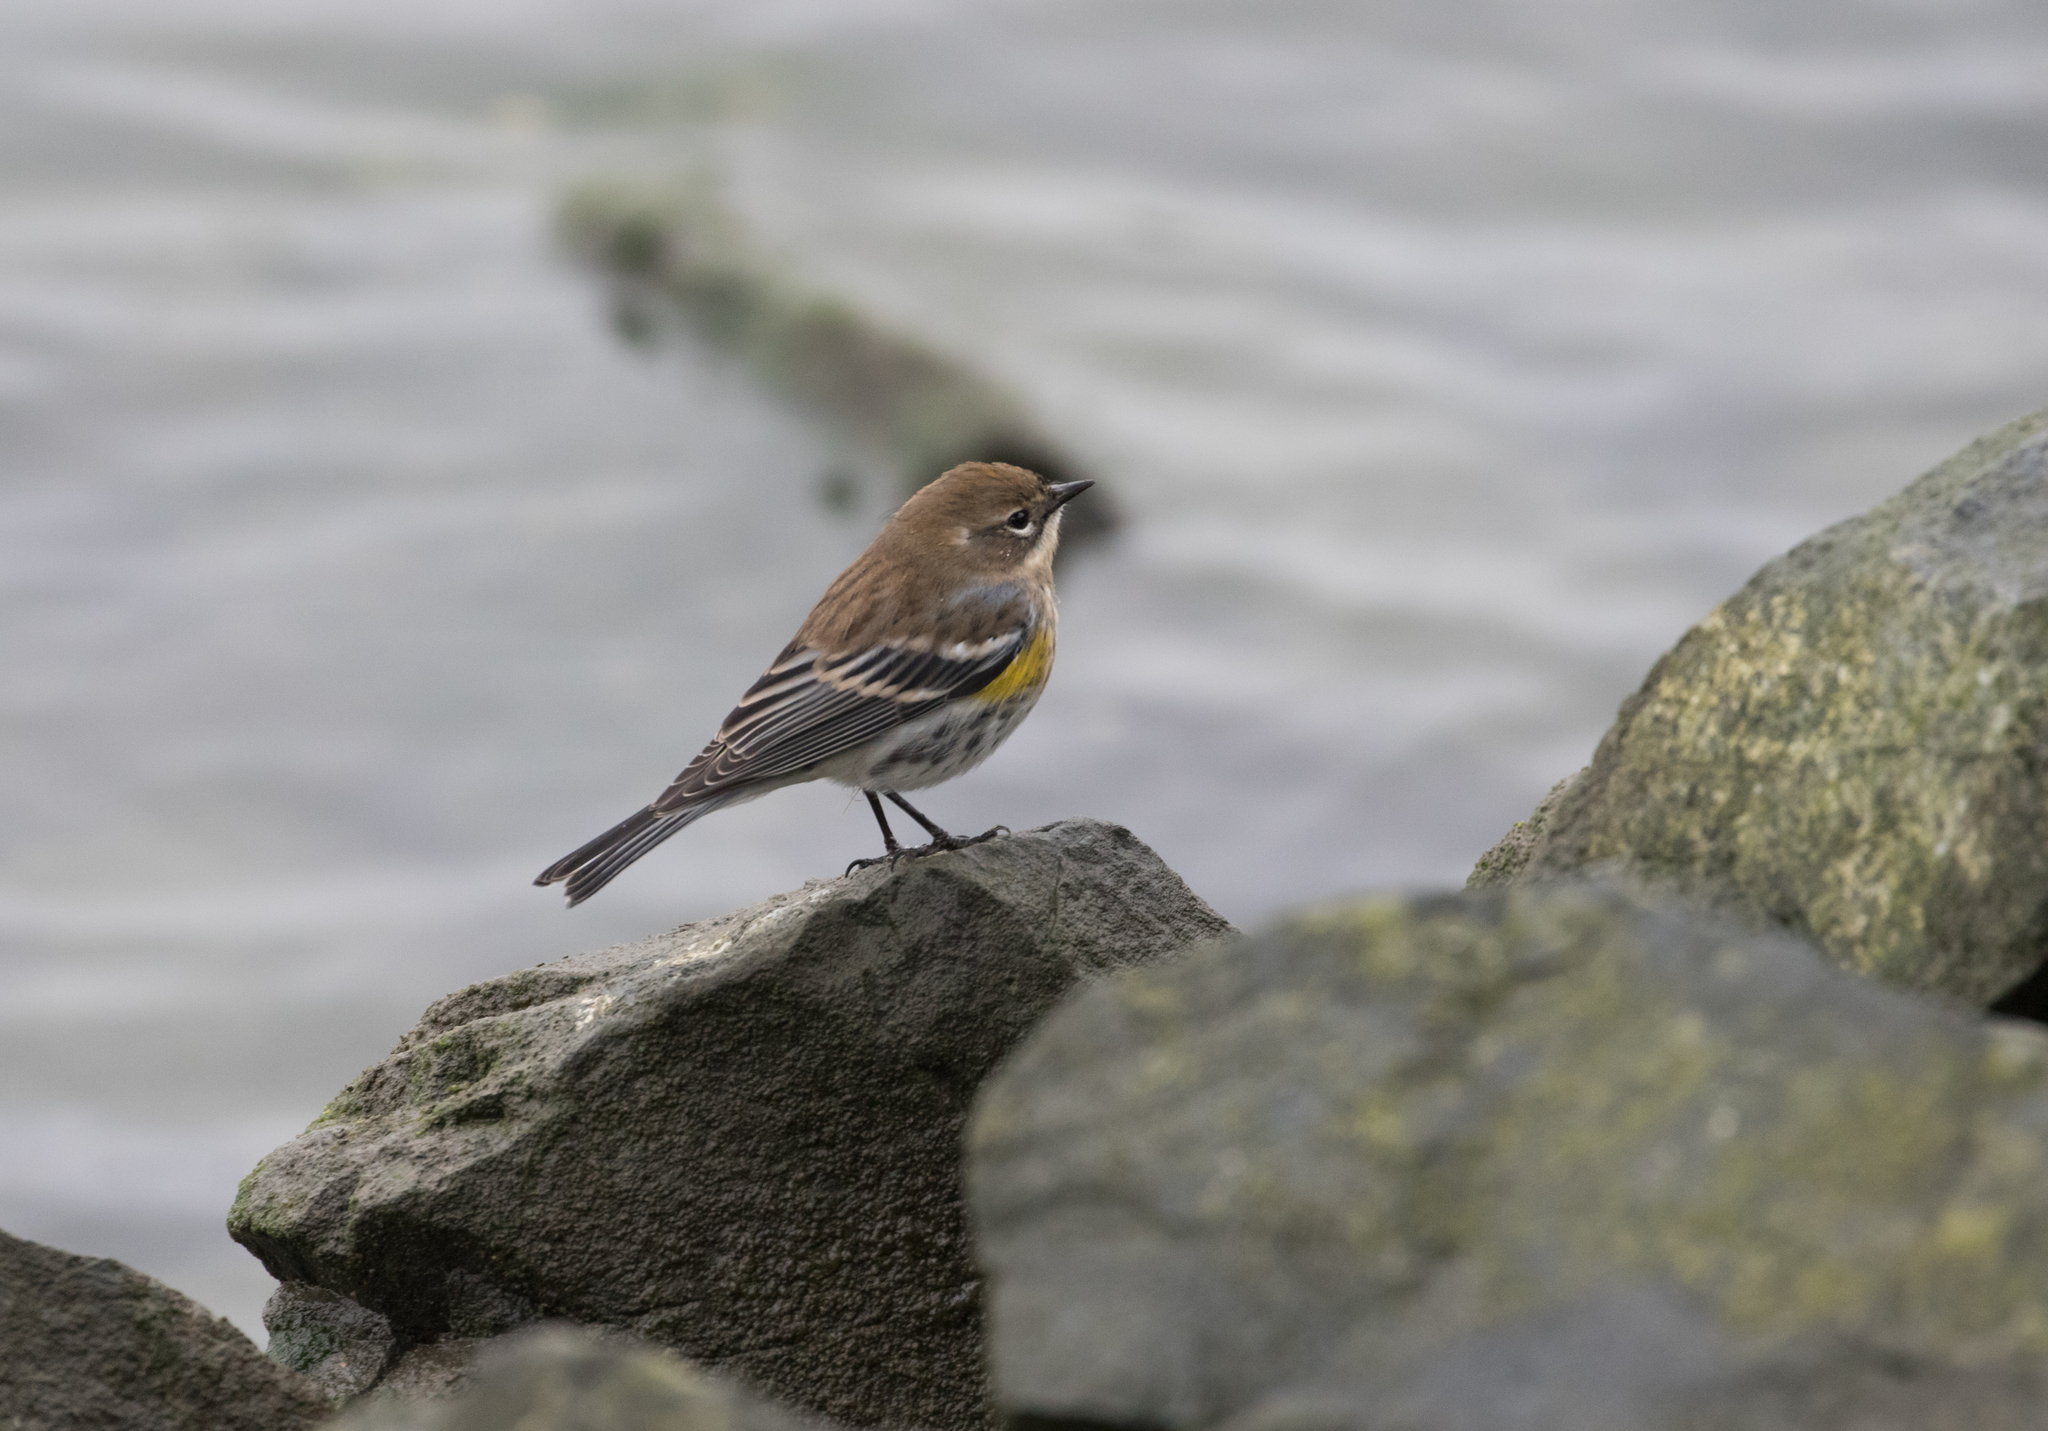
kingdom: Animalia
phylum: Chordata
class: Aves
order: Passeriformes
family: Parulidae
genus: Setophaga
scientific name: Setophaga coronata
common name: Myrtle warbler
